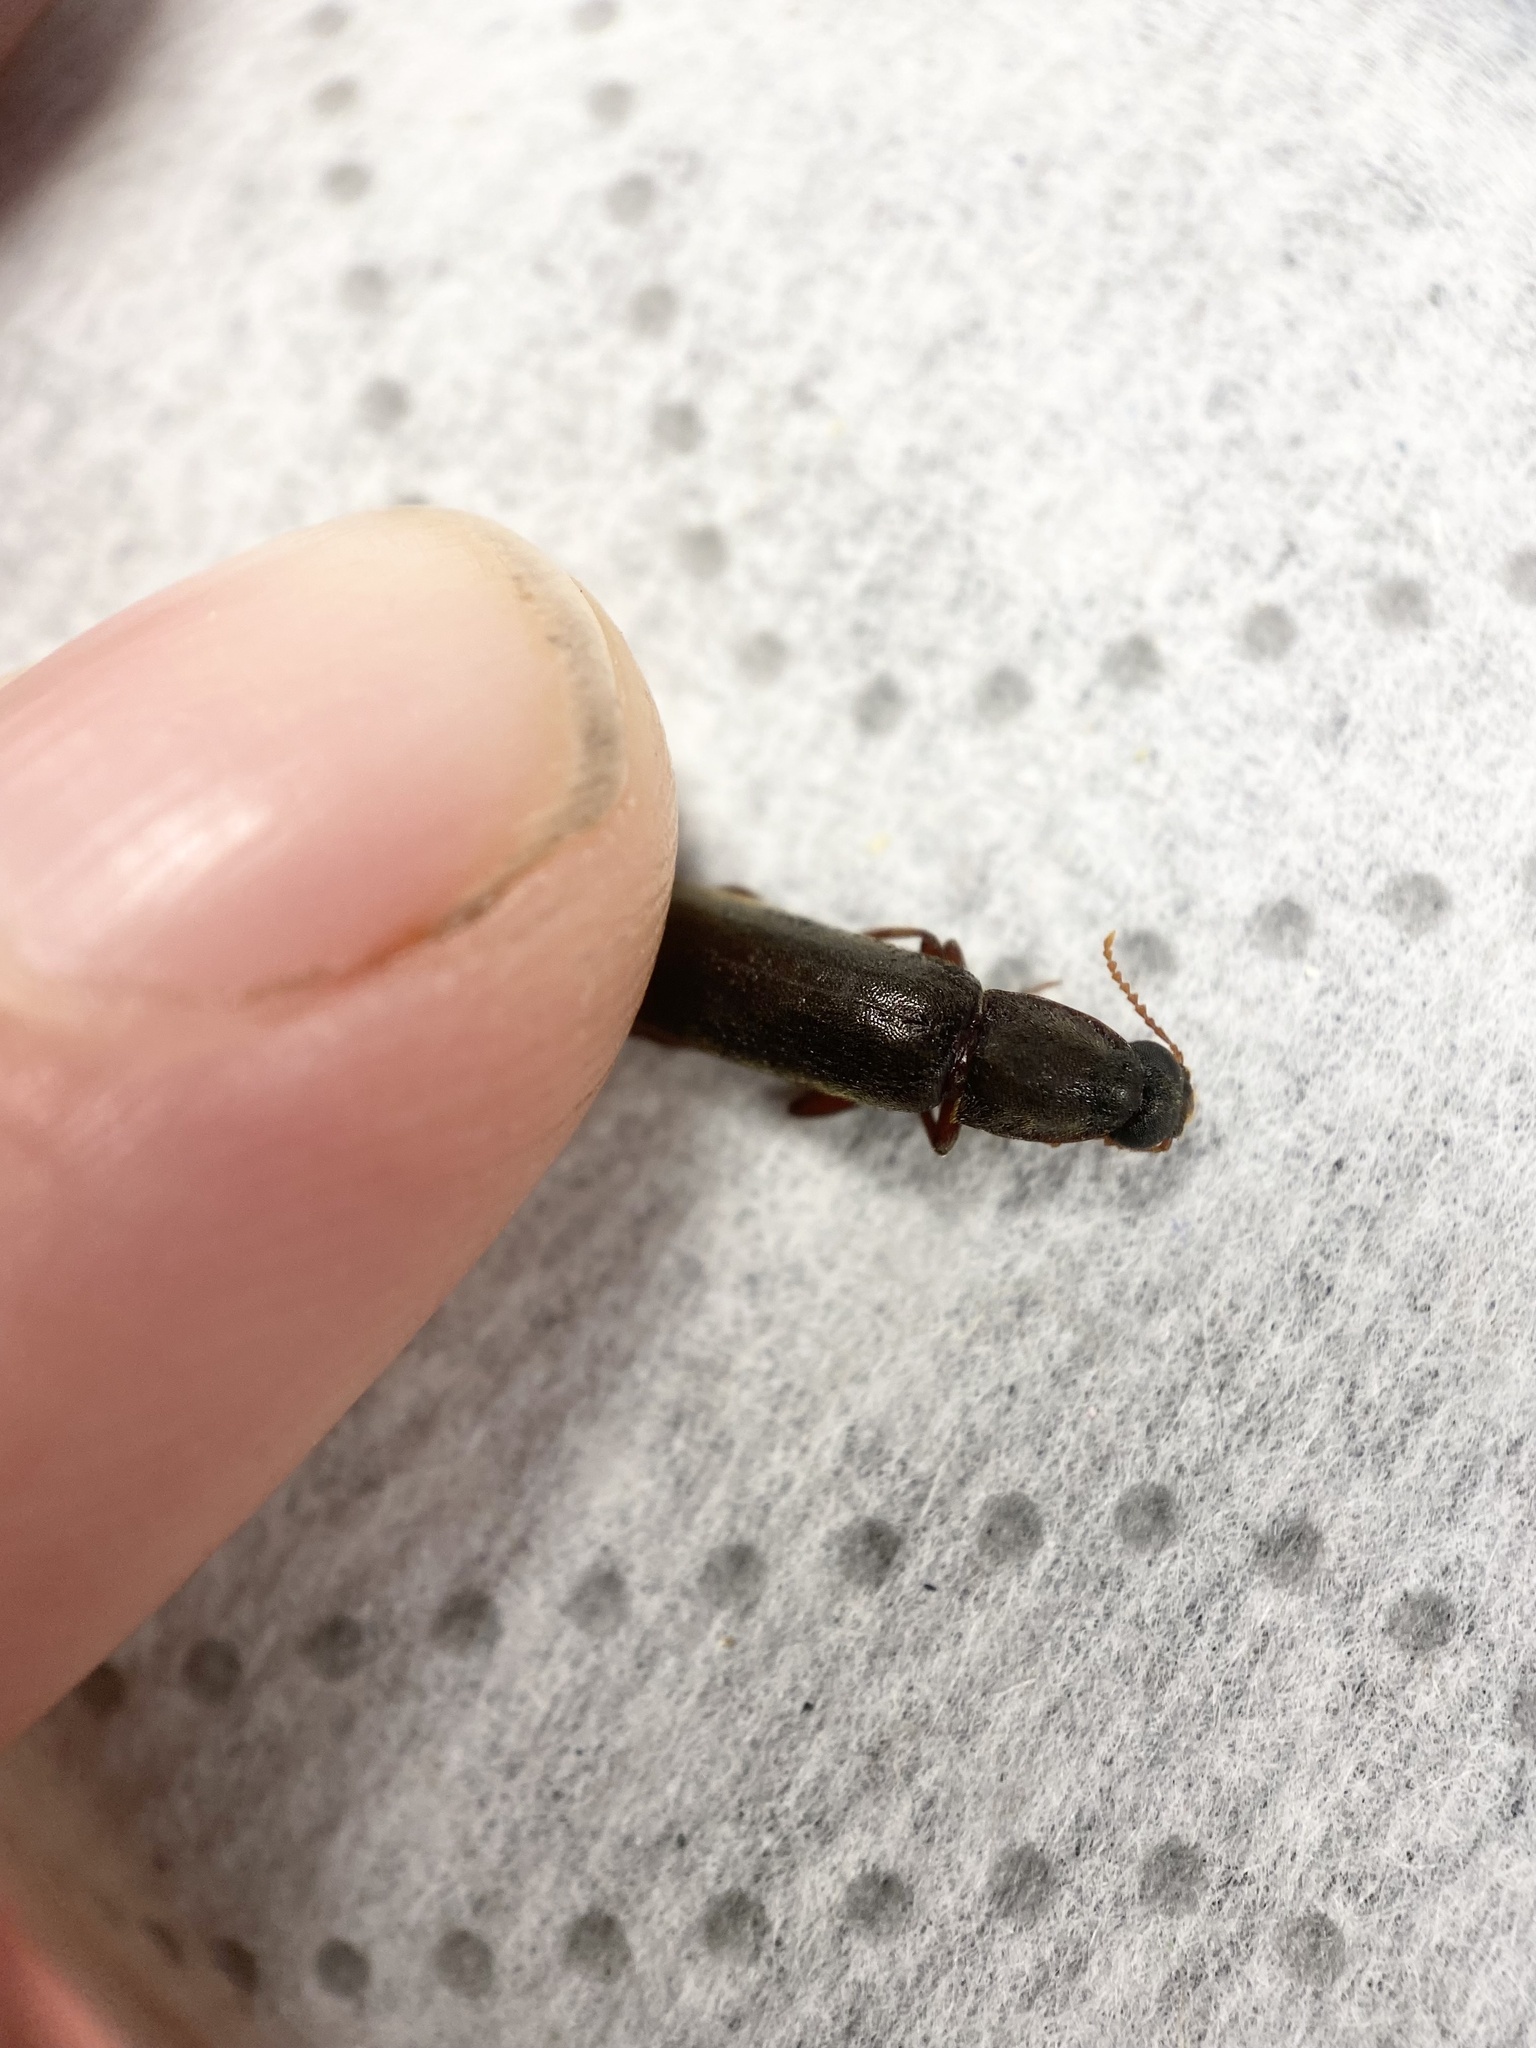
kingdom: Animalia
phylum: Arthropoda
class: Insecta
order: Coleoptera
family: Lymexylidae
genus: Melittomma
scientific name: Melittomma sericeum
